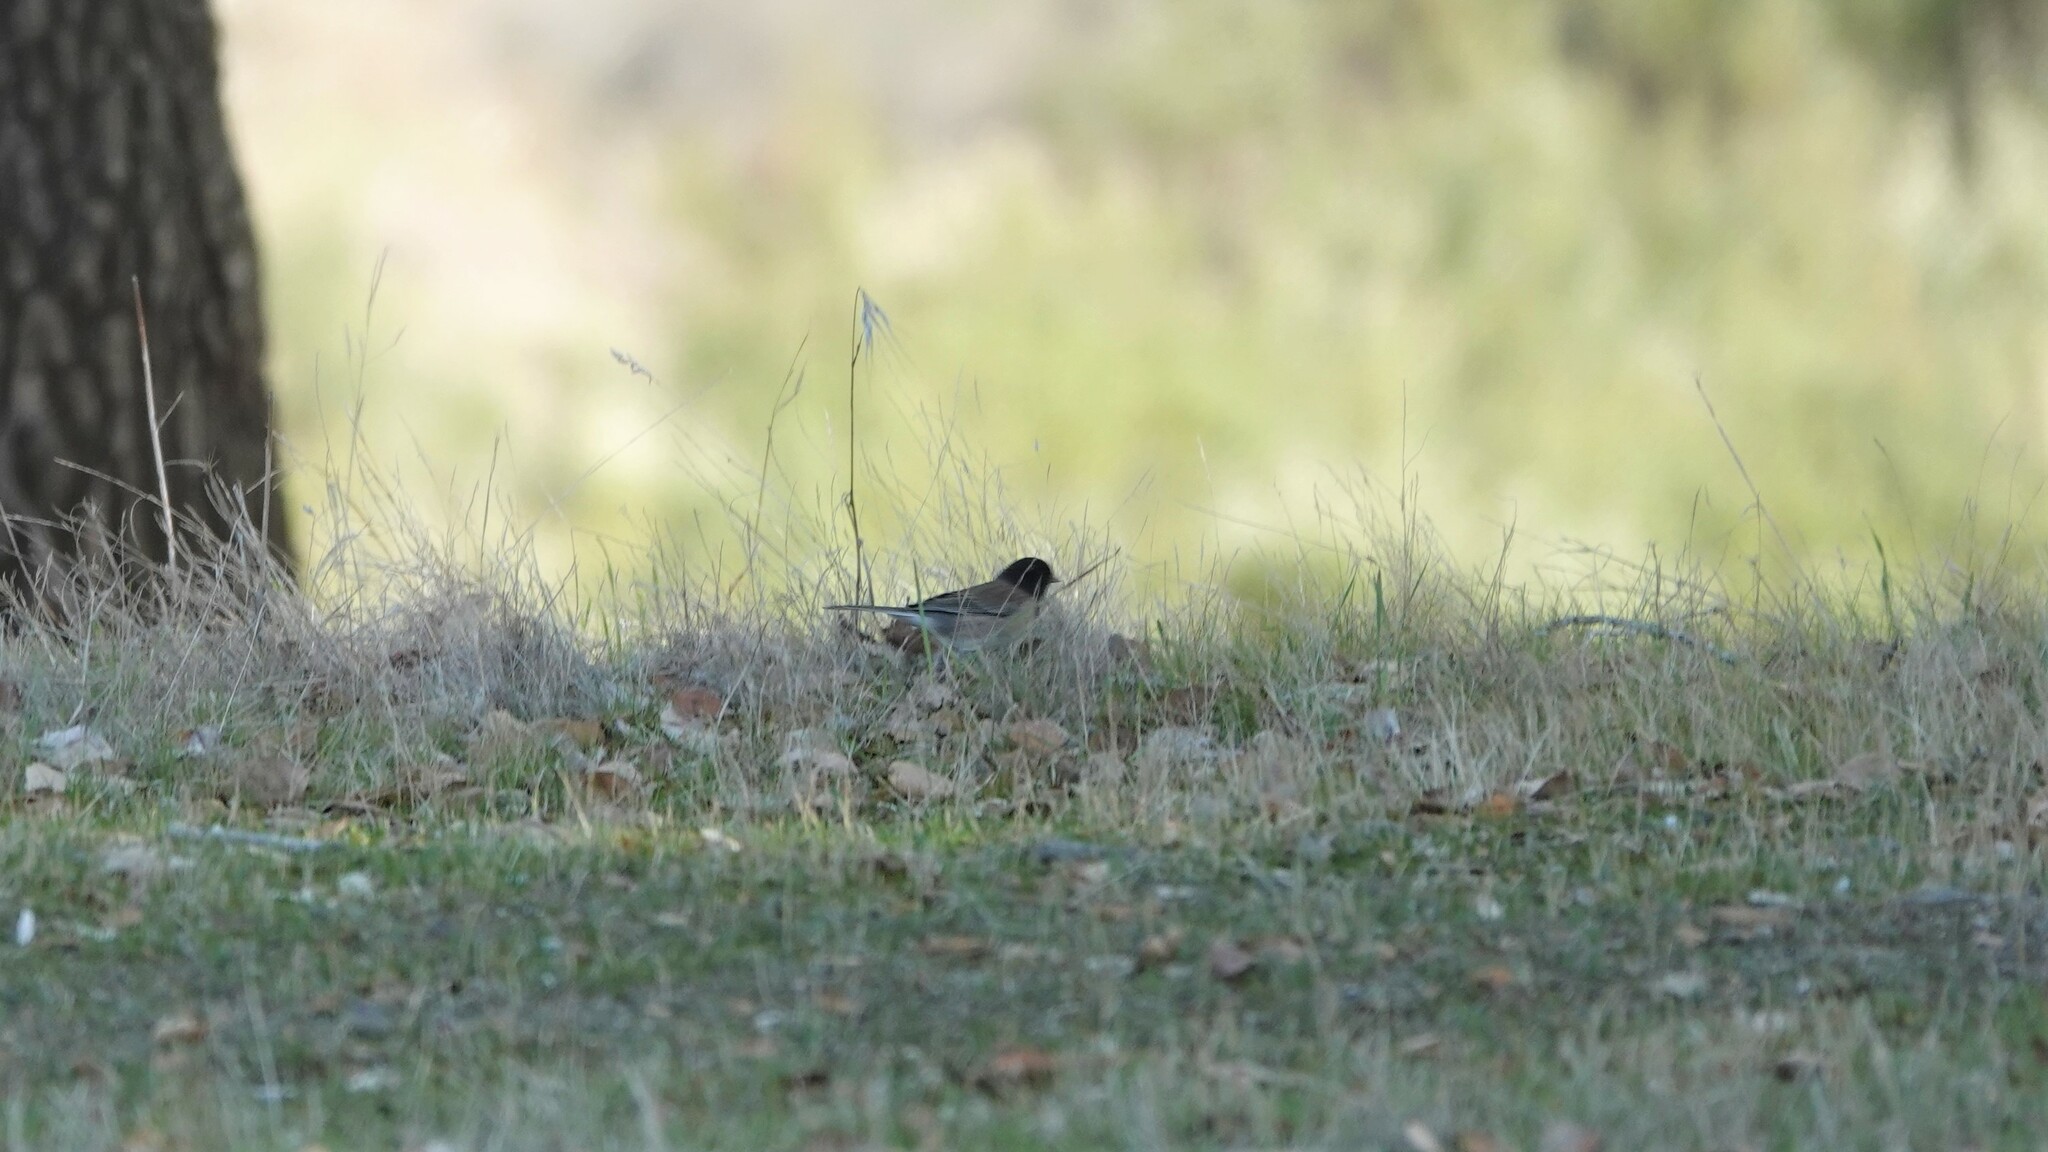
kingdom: Animalia
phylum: Chordata
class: Aves
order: Passeriformes
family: Passerellidae
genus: Junco
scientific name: Junco hyemalis
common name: Dark-eyed junco
